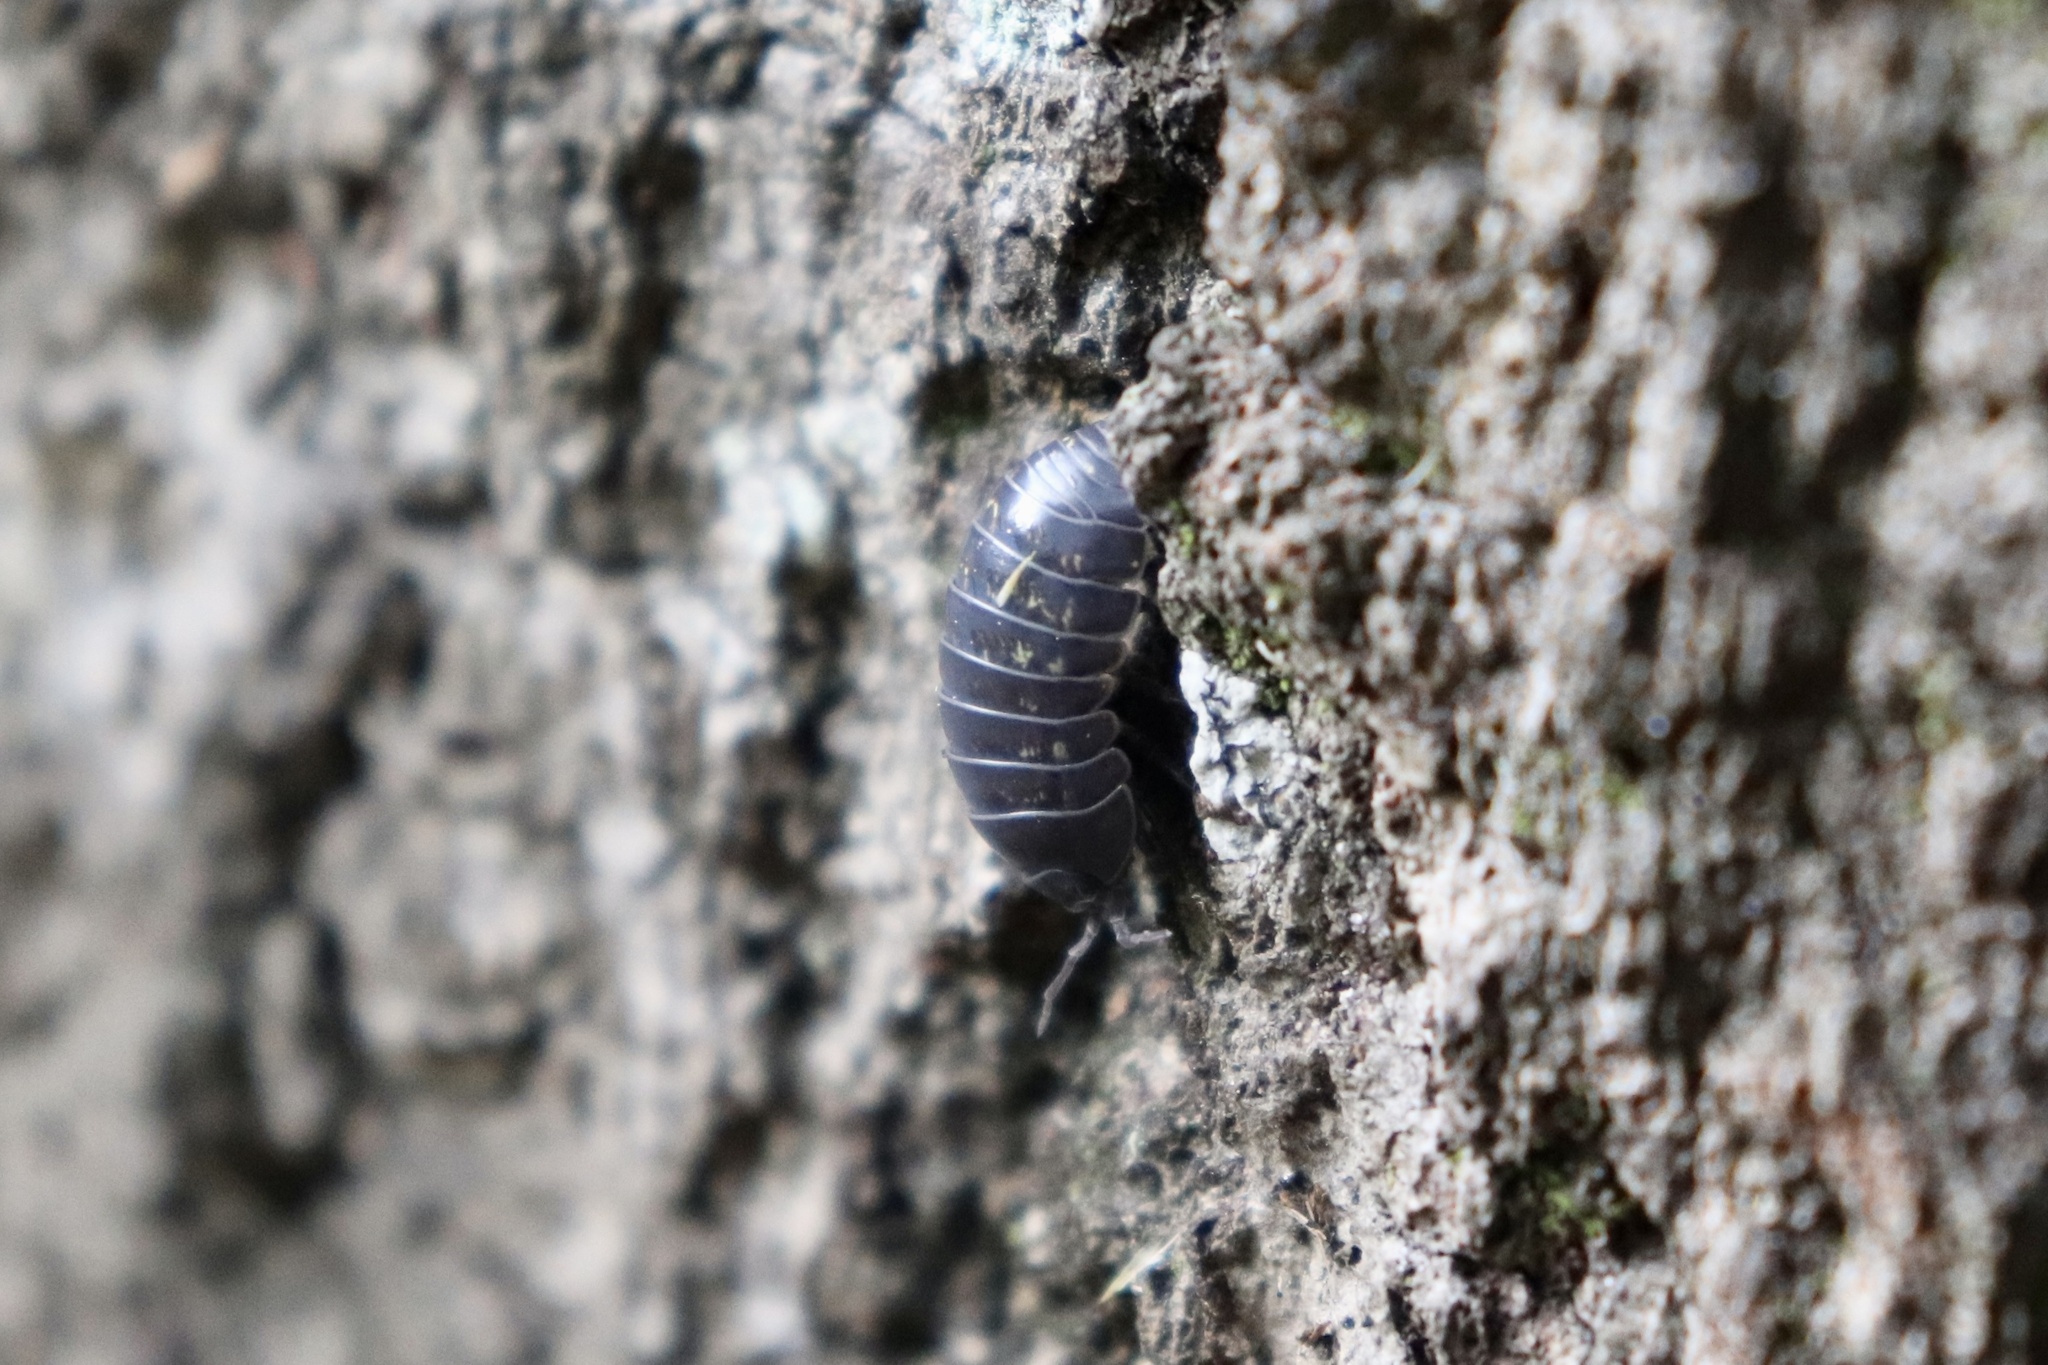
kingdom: Animalia
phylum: Arthropoda
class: Malacostraca
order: Isopoda
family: Armadillidiidae
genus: Armadillidium
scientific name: Armadillidium vulgare
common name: Common pill woodlouse
